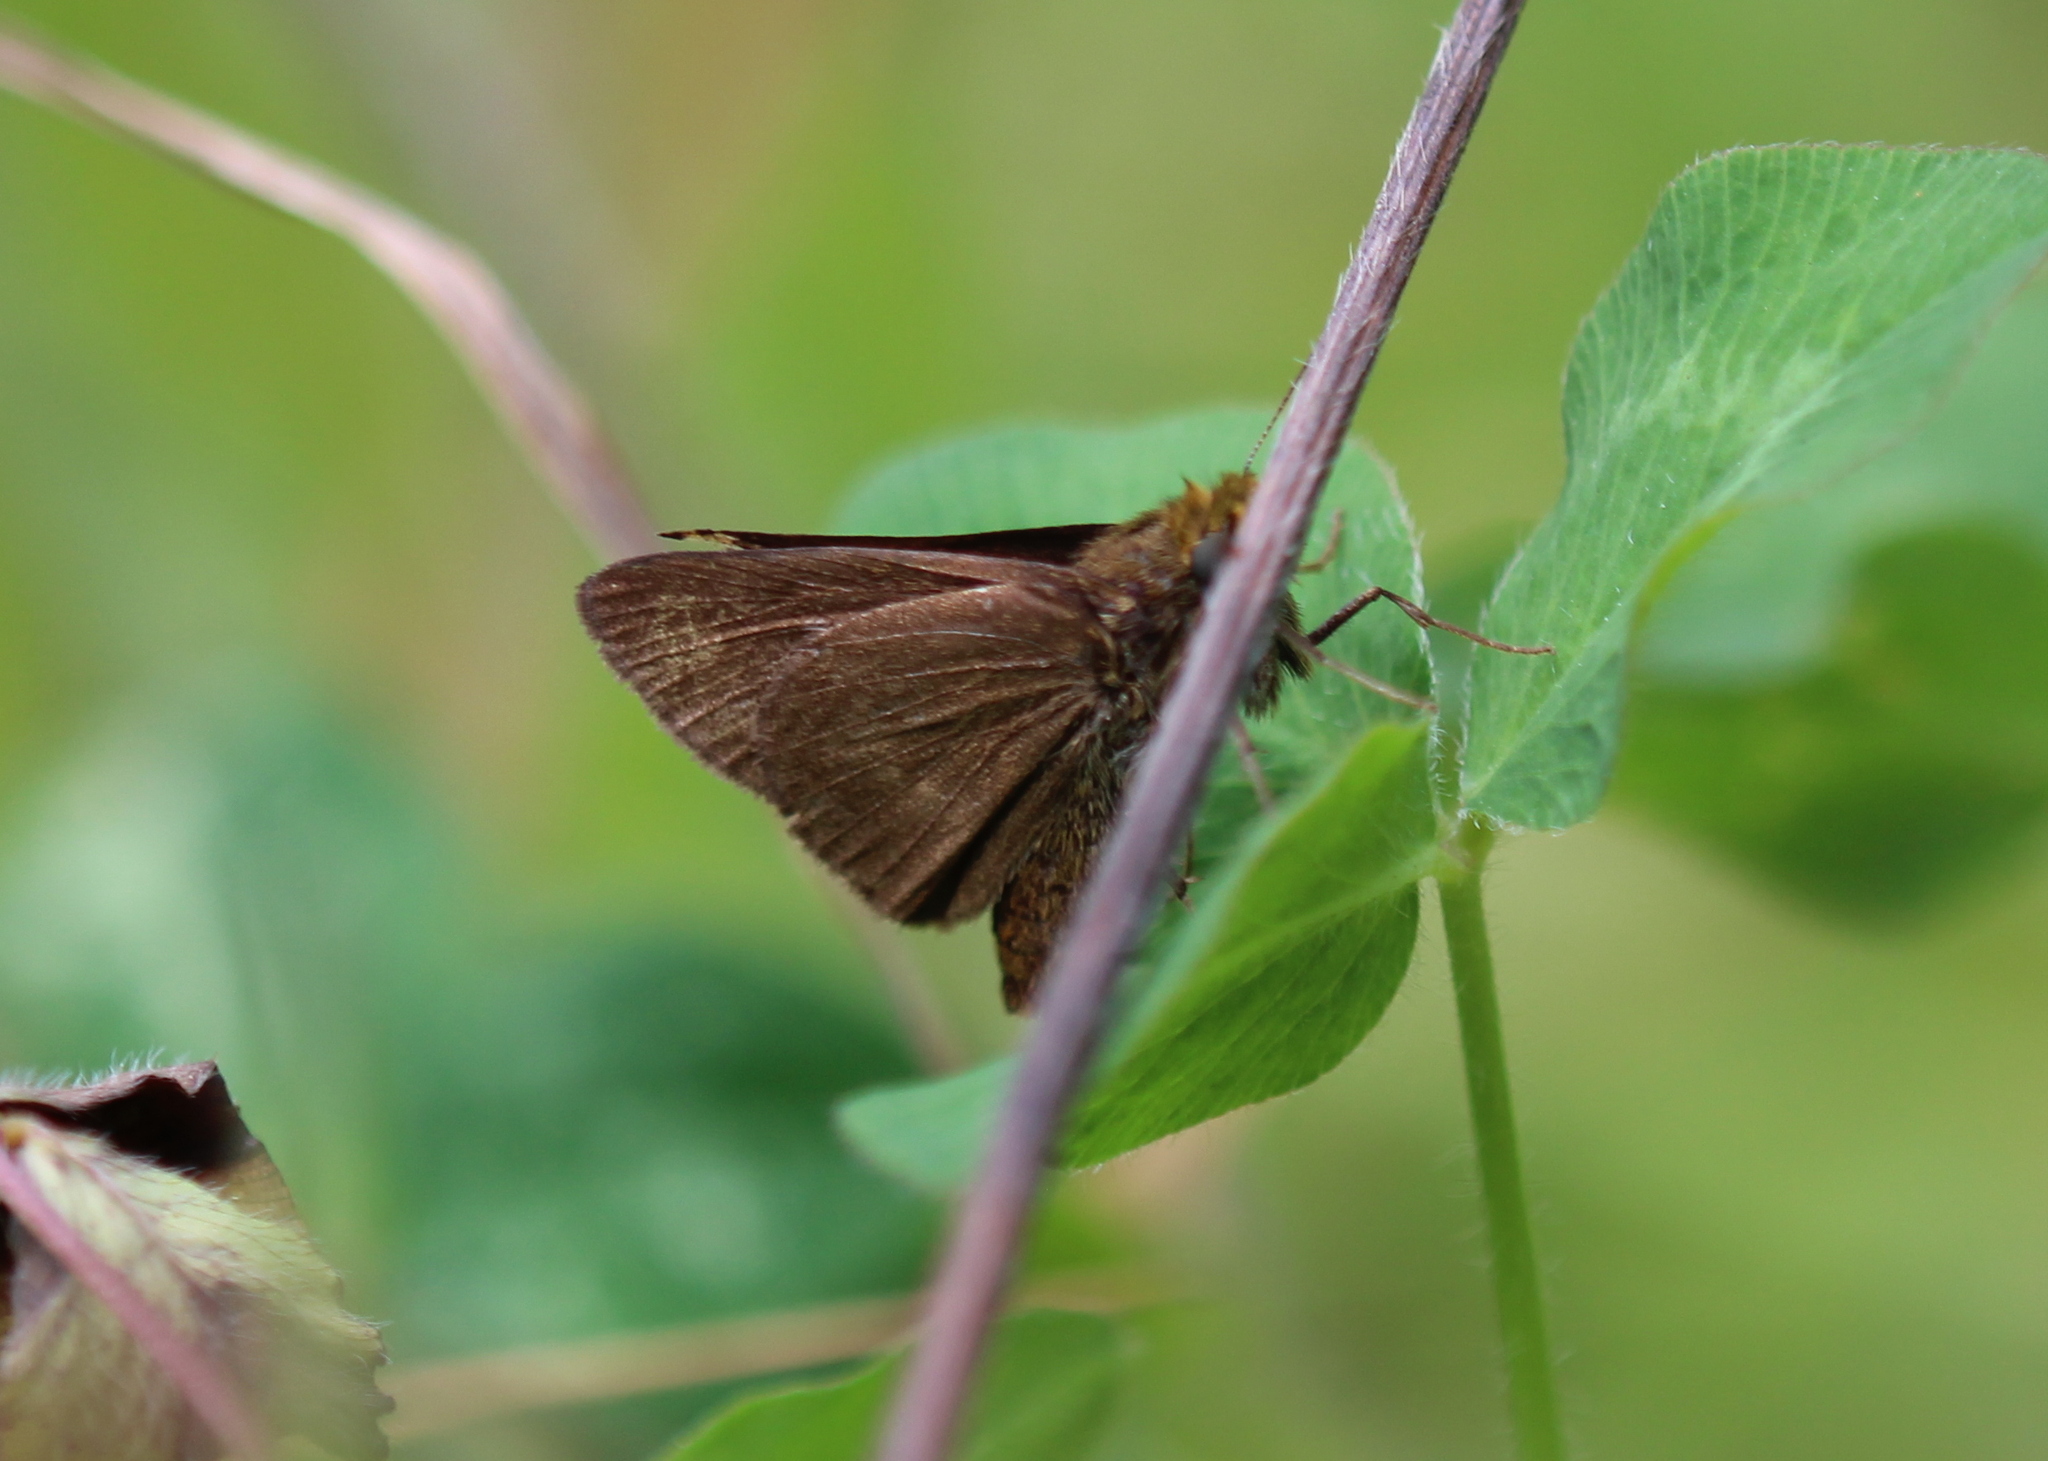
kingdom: Animalia
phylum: Arthropoda
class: Insecta
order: Lepidoptera
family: Hesperiidae
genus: Euphyes
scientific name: Euphyes vestris
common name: Dun skipper
